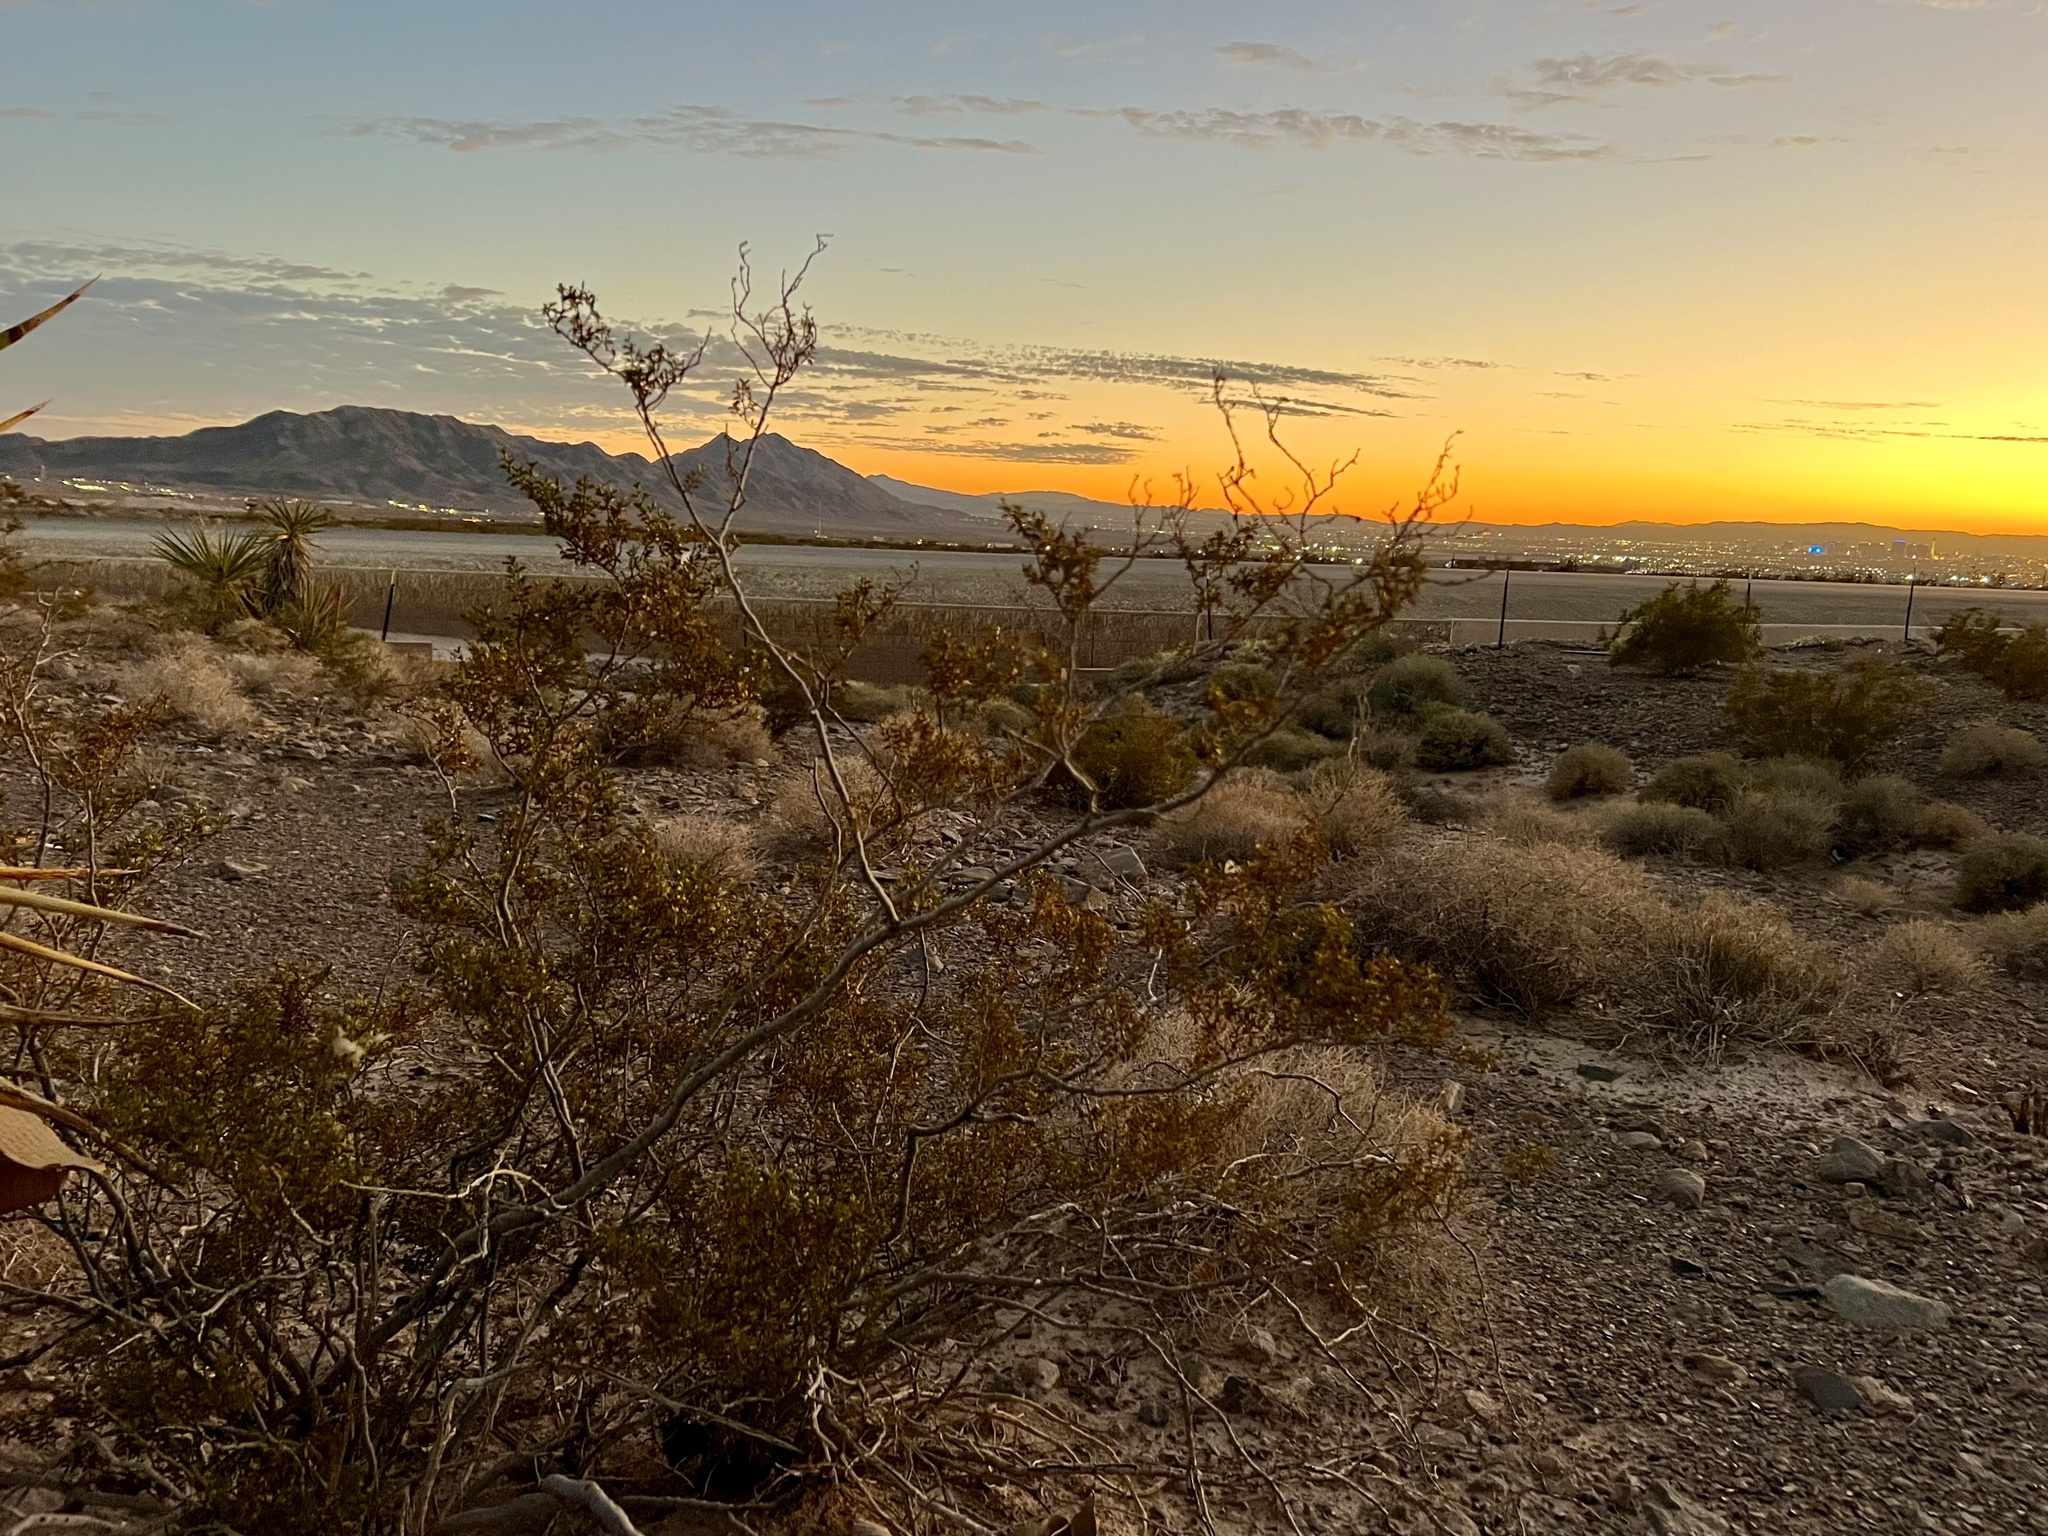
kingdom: Plantae
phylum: Tracheophyta
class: Magnoliopsida
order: Zygophyllales
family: Zygophyllaceae
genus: Larrea
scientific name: Larrea tridentata
